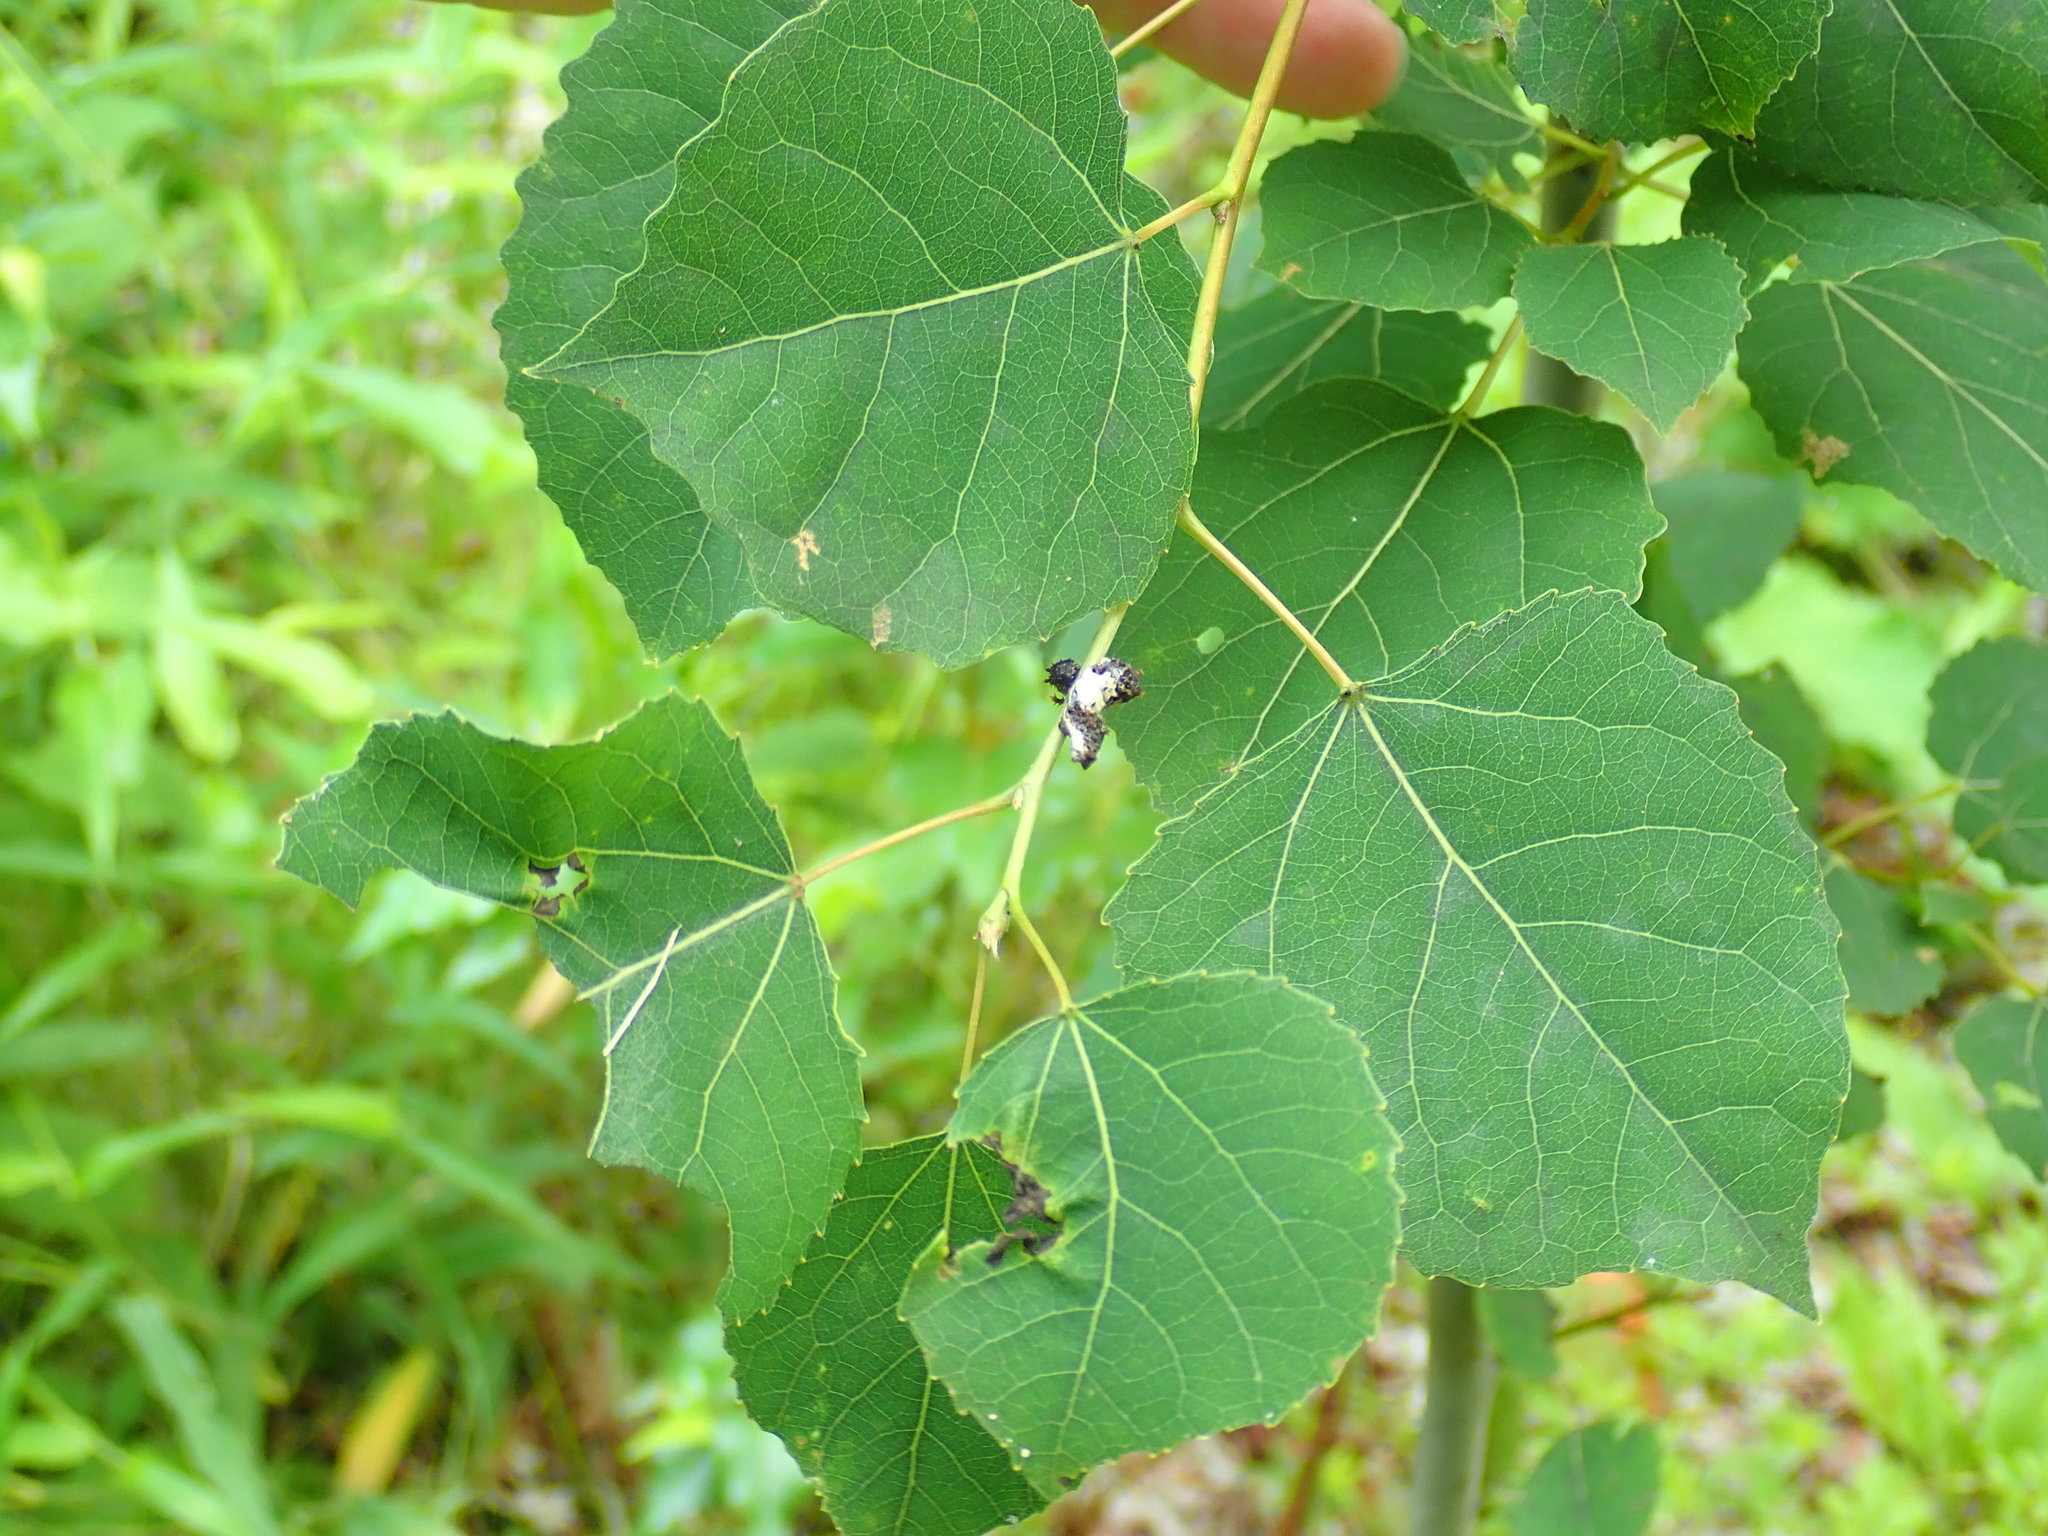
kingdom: Animalia
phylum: Arthropoda
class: Insecta
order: Lepidoptera
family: Nymphalidae
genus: Limenitis
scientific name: Limenitis archippus
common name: Viceroy
